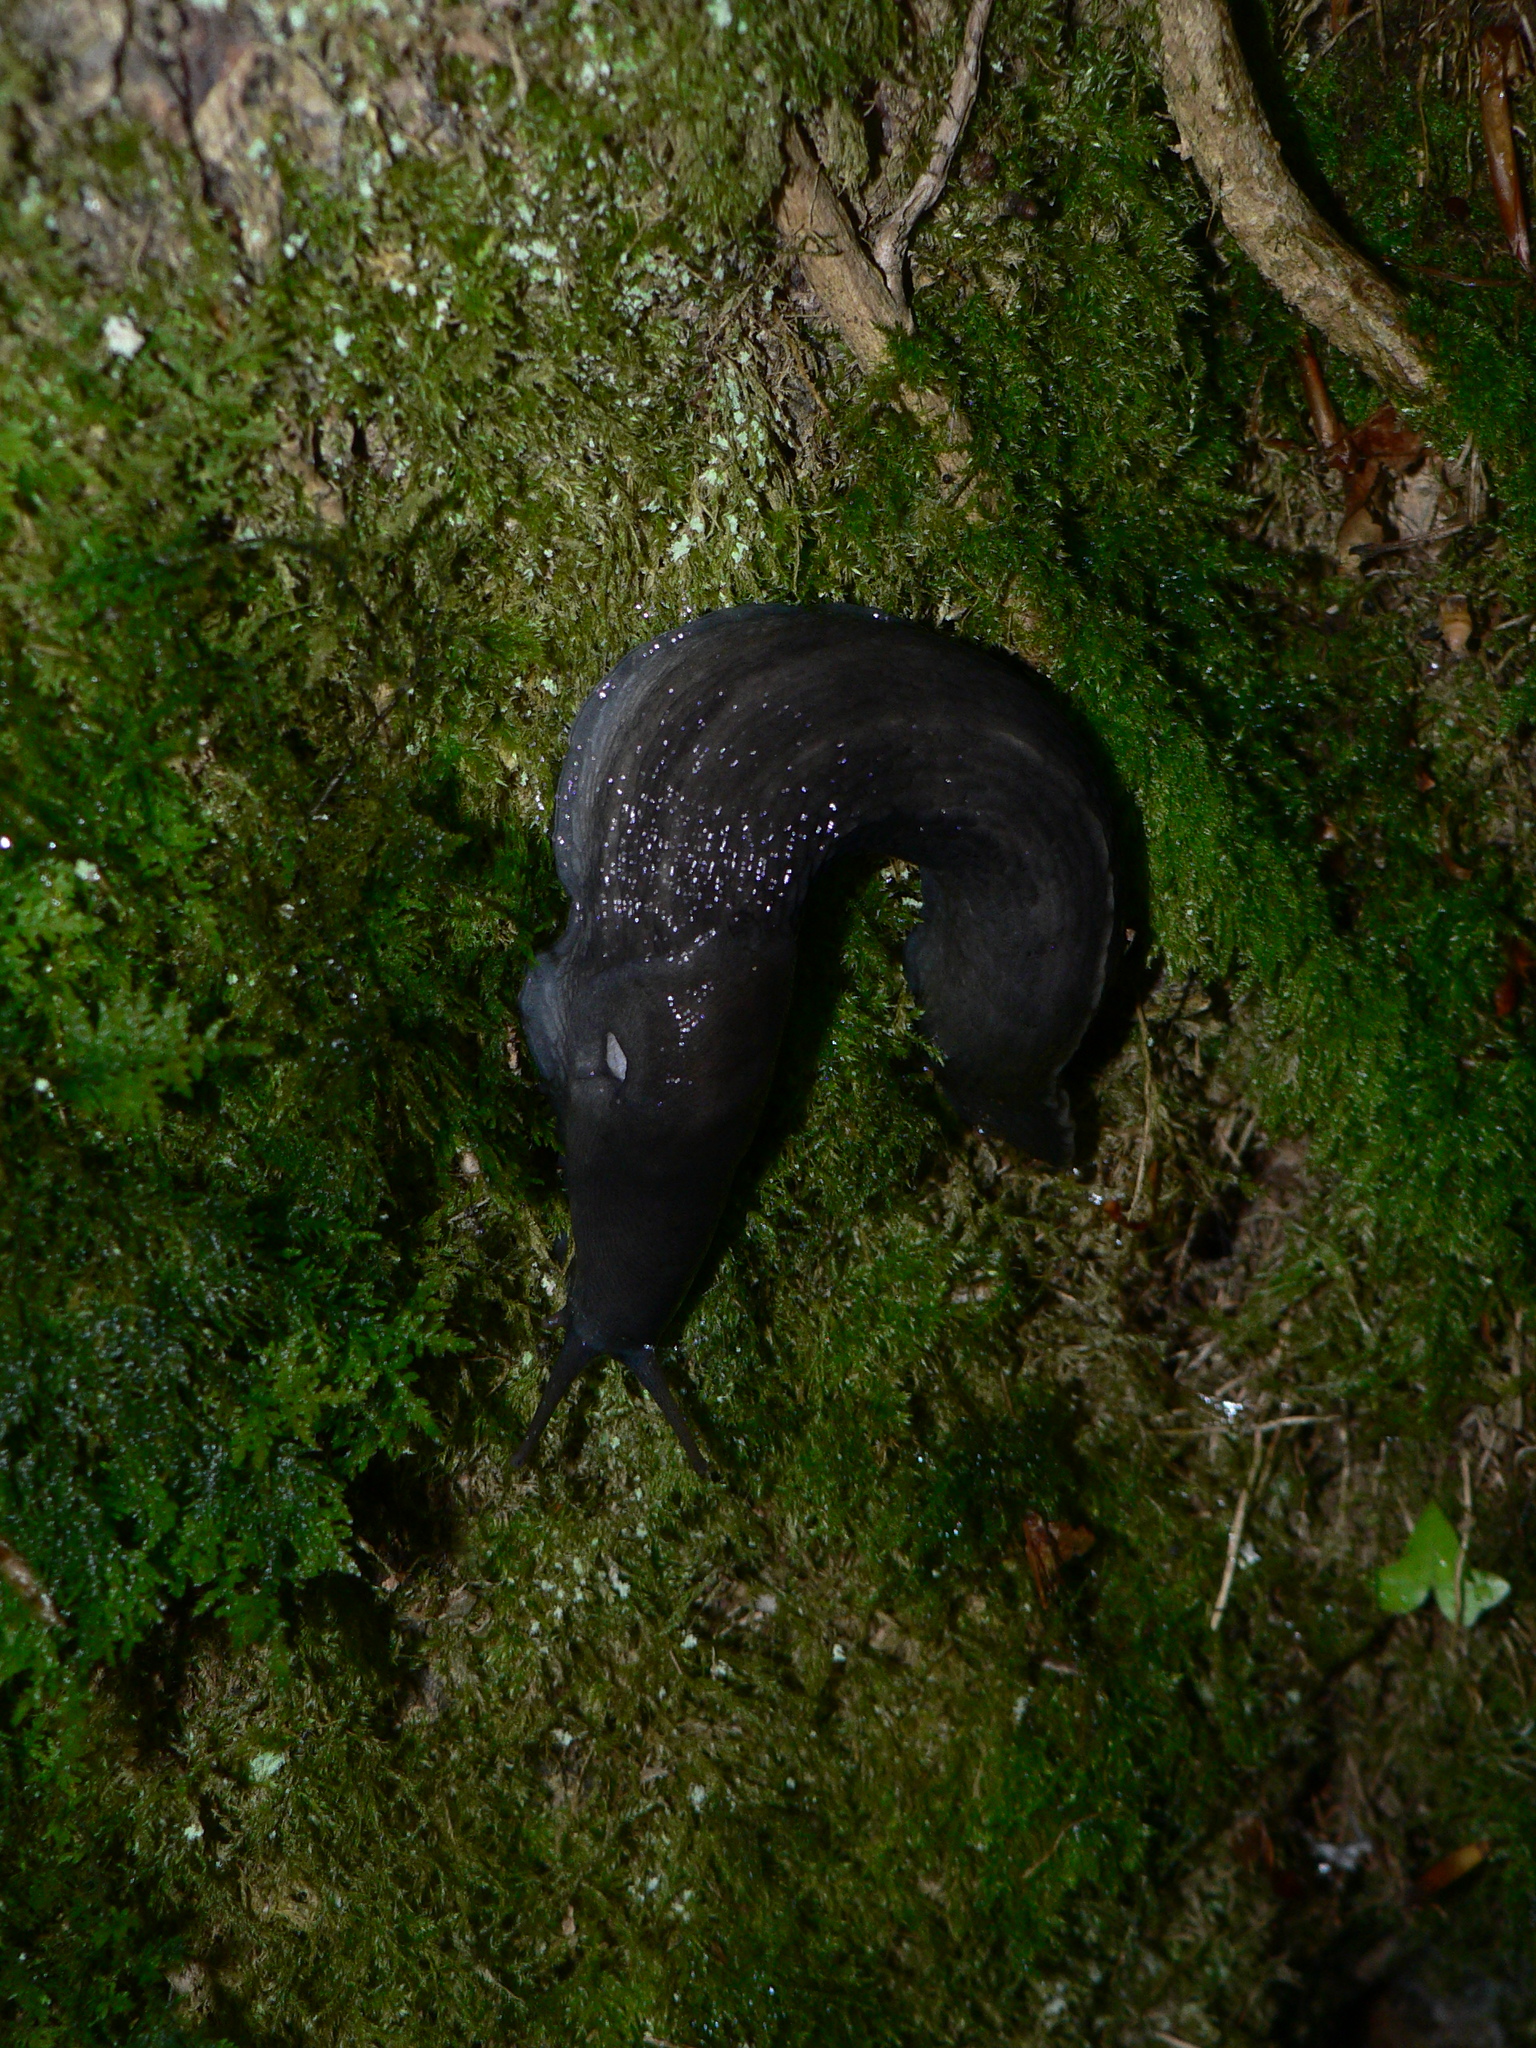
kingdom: Animalia
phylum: Mollusca
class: Gastropoda
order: Stylommatophora
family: Limacidae
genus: Limax
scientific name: Limax cinereoniger
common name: Ash-black slug
